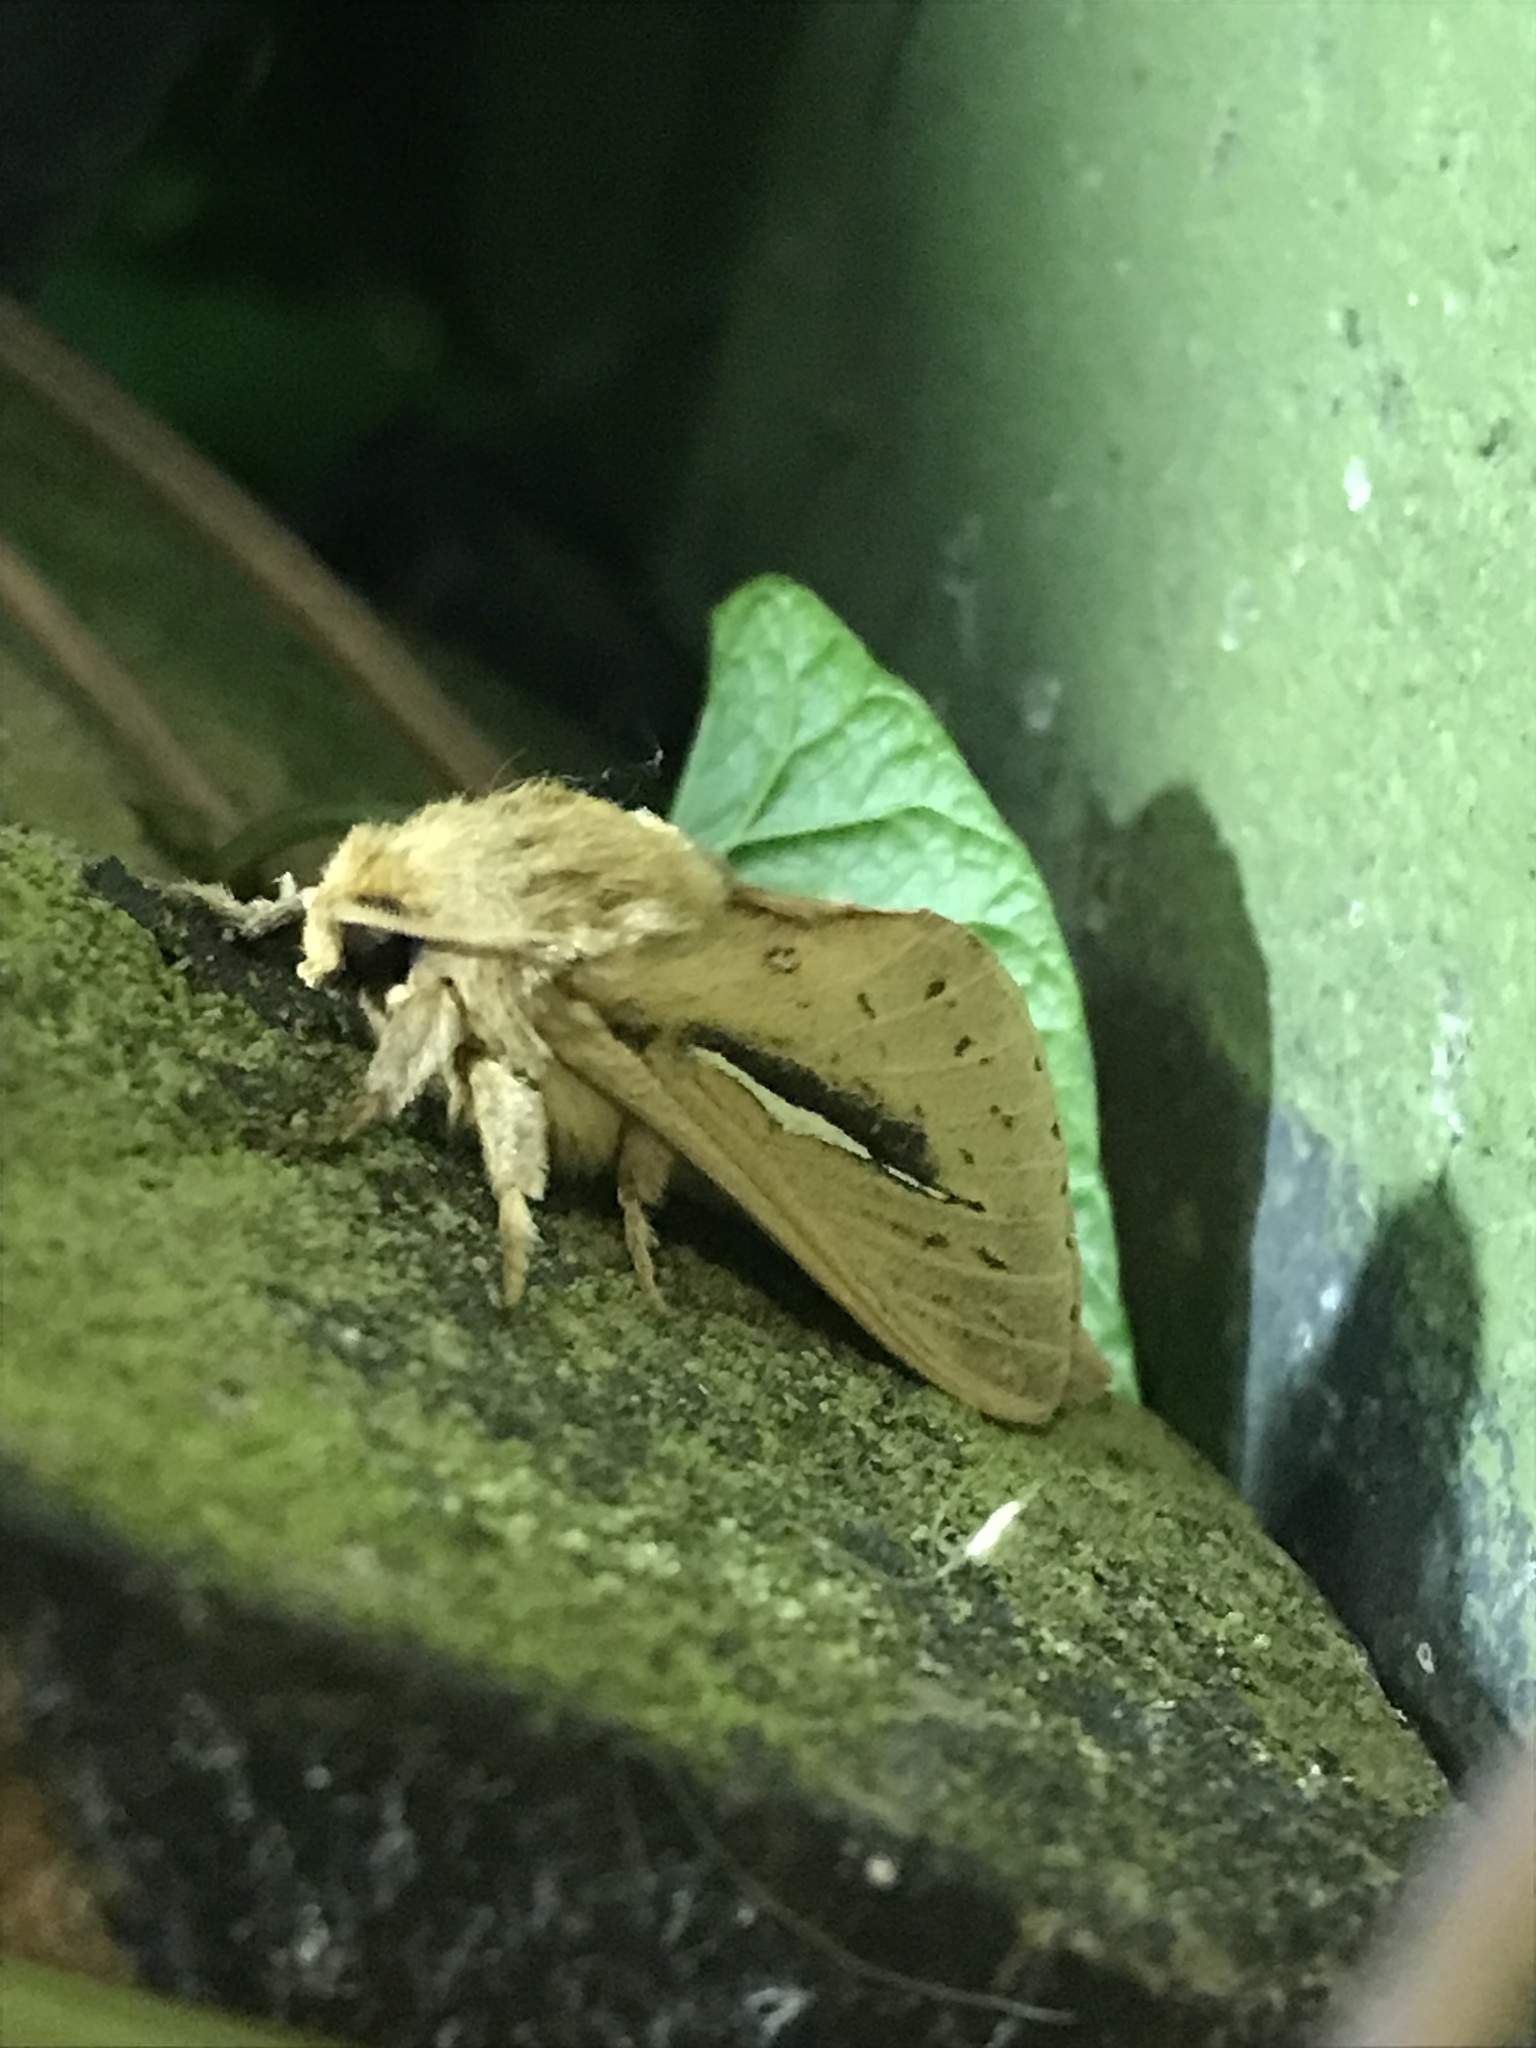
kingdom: Animalia
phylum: Arthropoda
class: Insecta
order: Lepidoptera
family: Hepialidae
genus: Wiseana
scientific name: Wiseana umbraculatus
